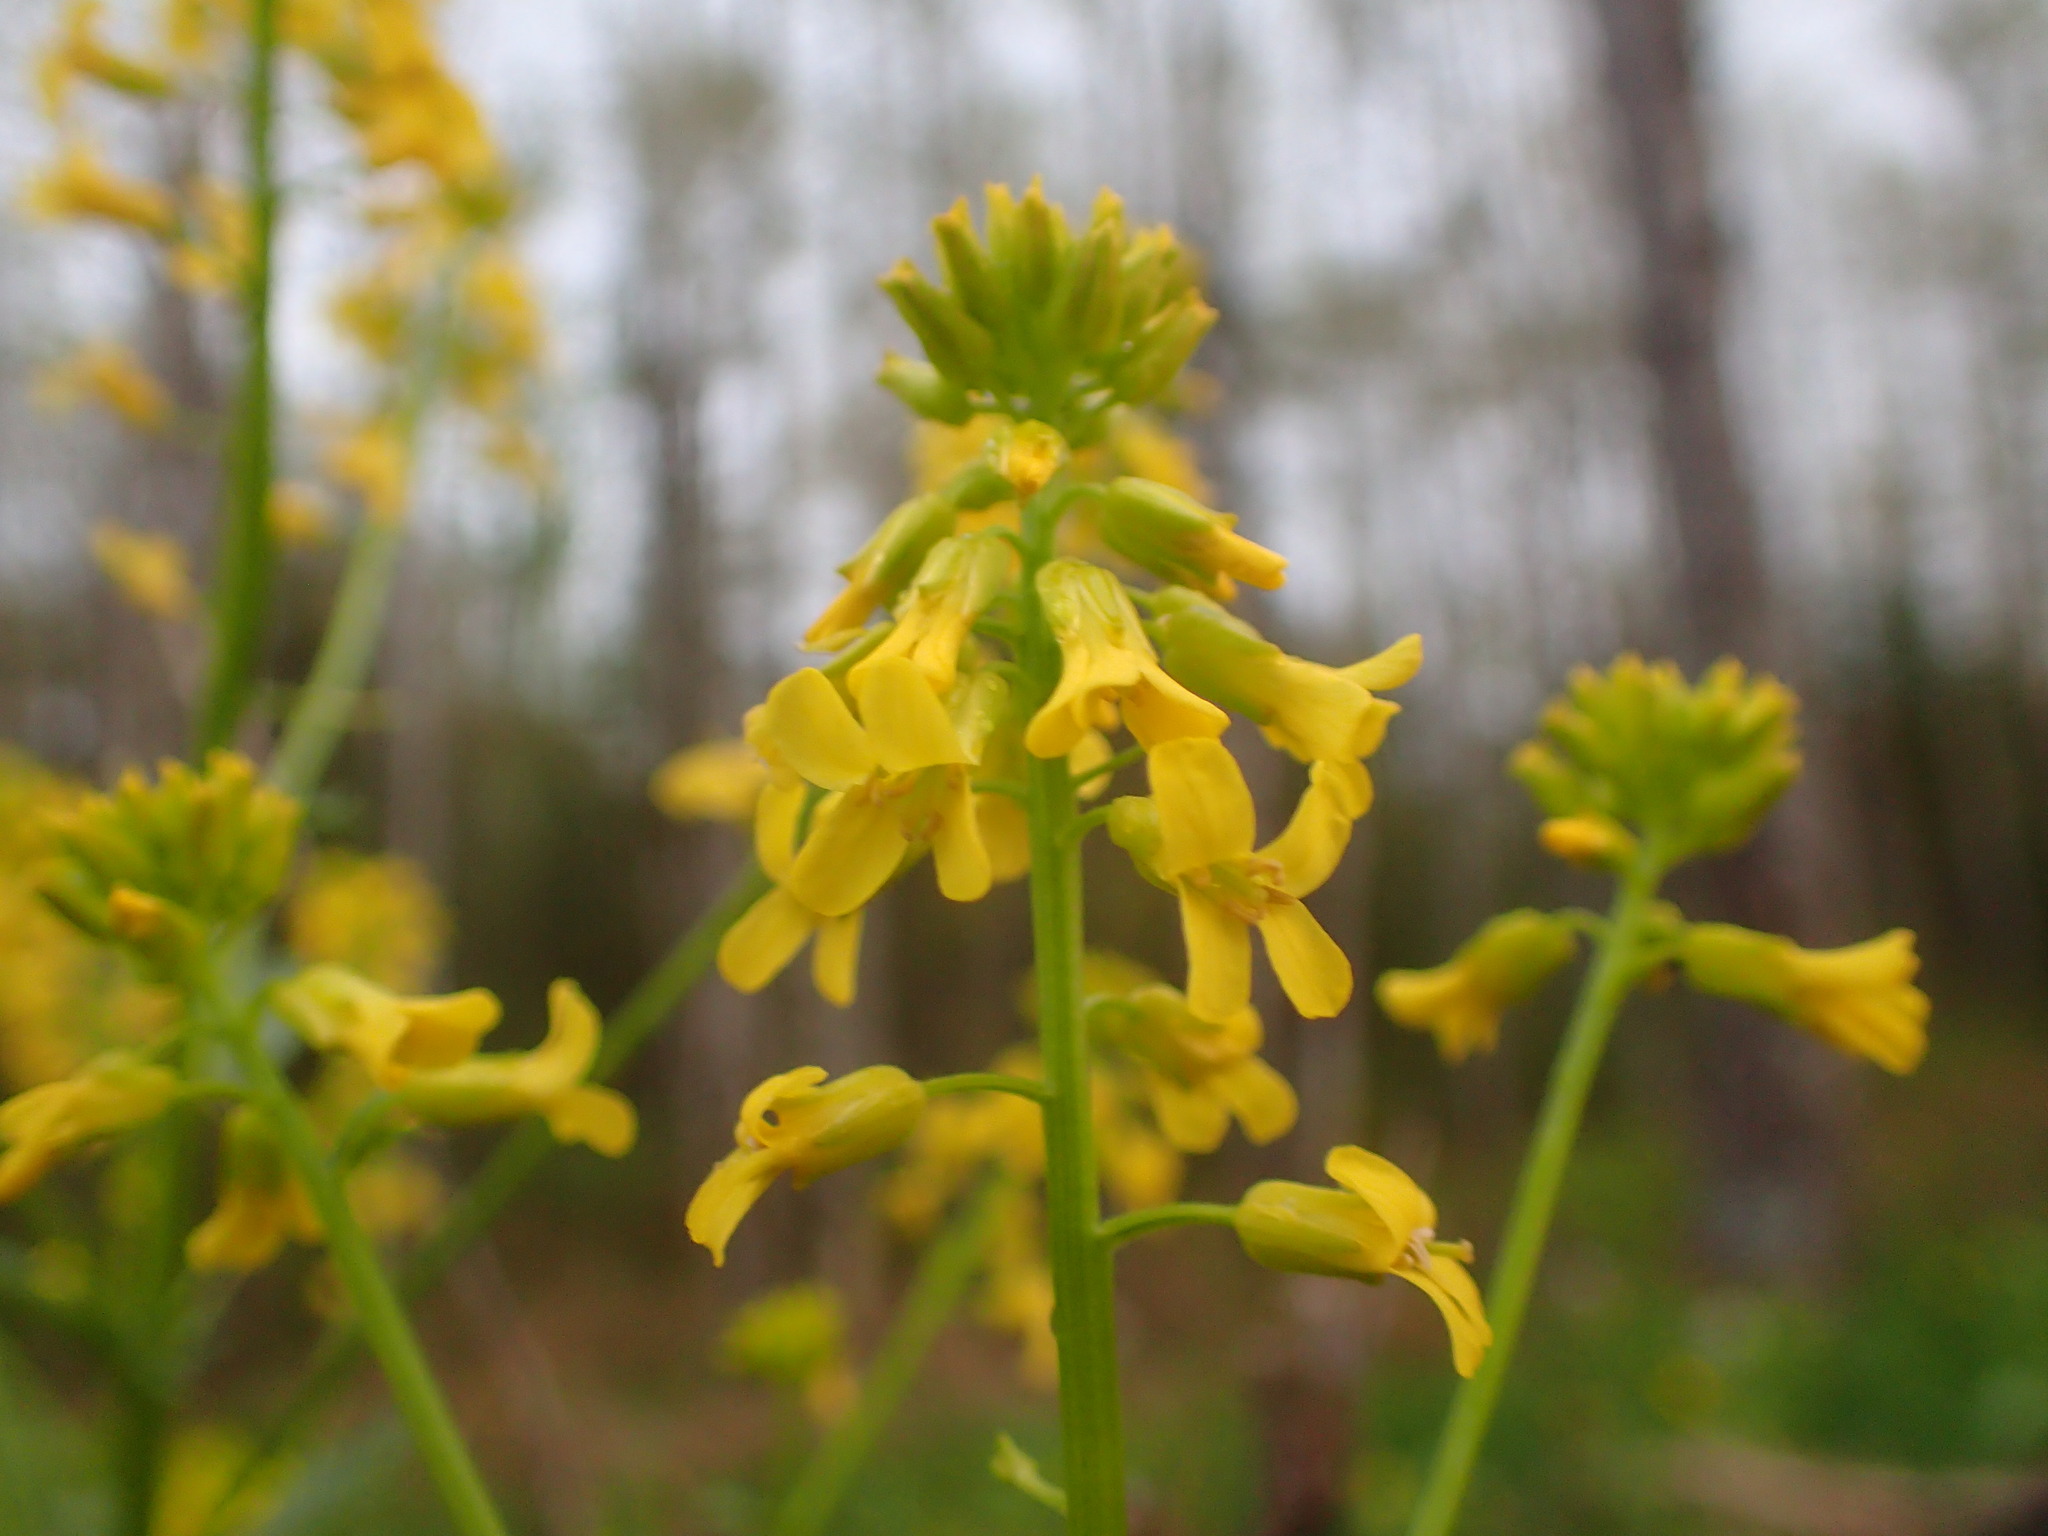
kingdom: Plantae
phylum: Tracheophyta
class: Magnoliopsida
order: Brassicales
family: Brassicaceae
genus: Barbarea
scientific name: Barbarea vulgaris
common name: Cressy-greens
